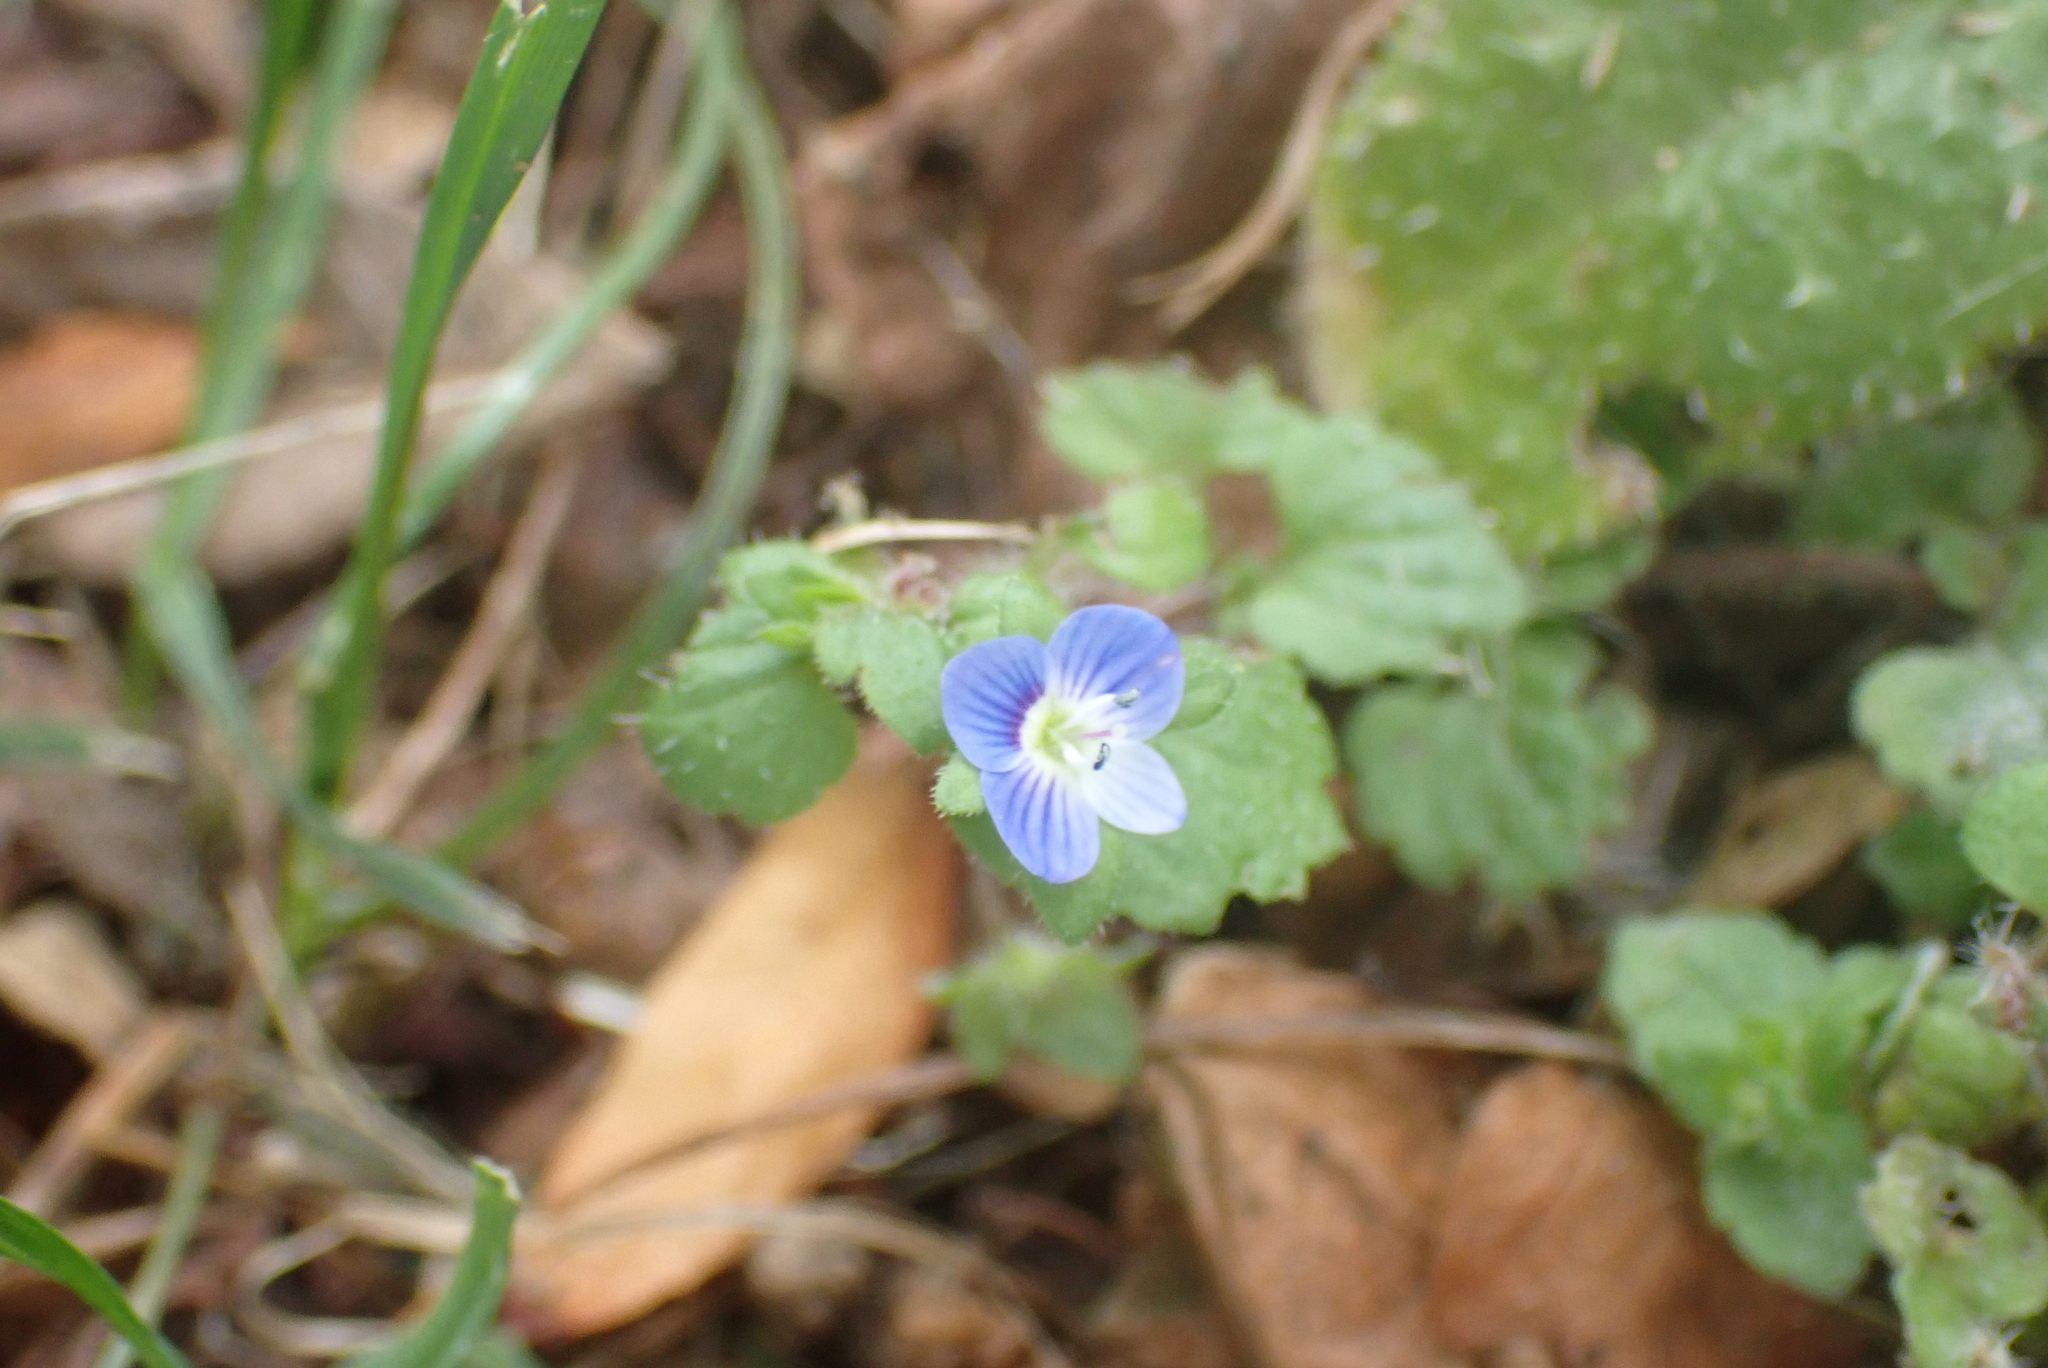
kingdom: Plantae
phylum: Tracheophyta
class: Magnoliopsida
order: Lamiales
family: Plantaginaceae
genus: Veronica
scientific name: Veronica persica
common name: Common field-speedwell
